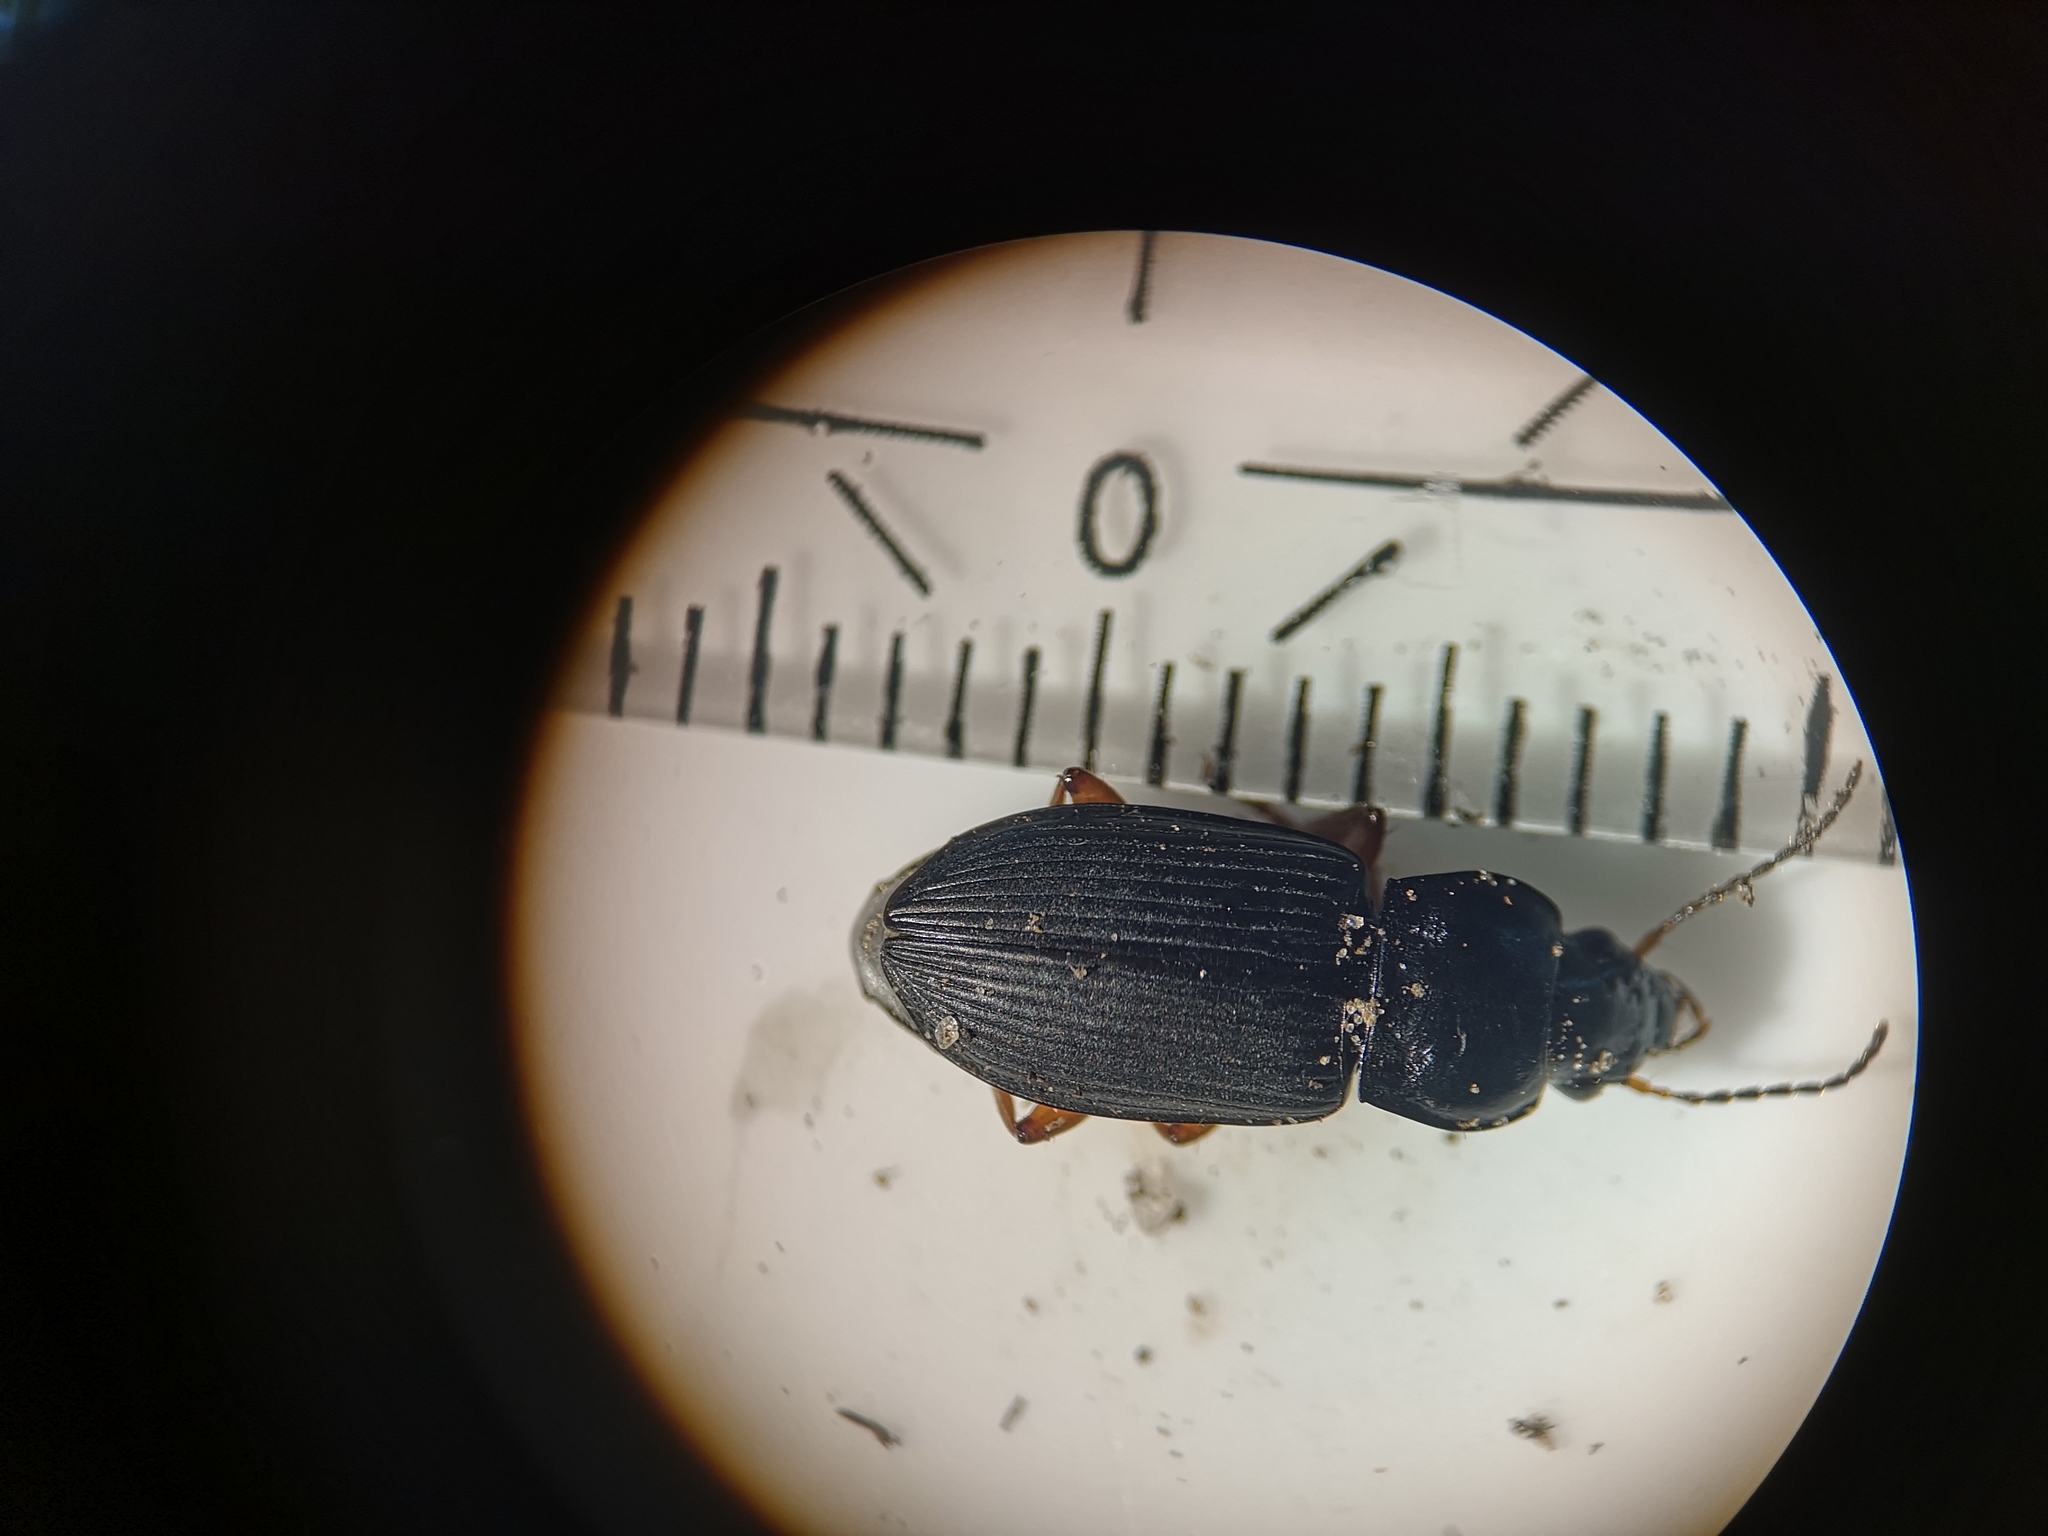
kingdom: Animalia
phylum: Arthropoda
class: Insecta
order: Coleoptera
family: Carabidae
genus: Anisodactylus
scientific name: Anisodactylus binotatus
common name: Two-marked harp ground beetle
